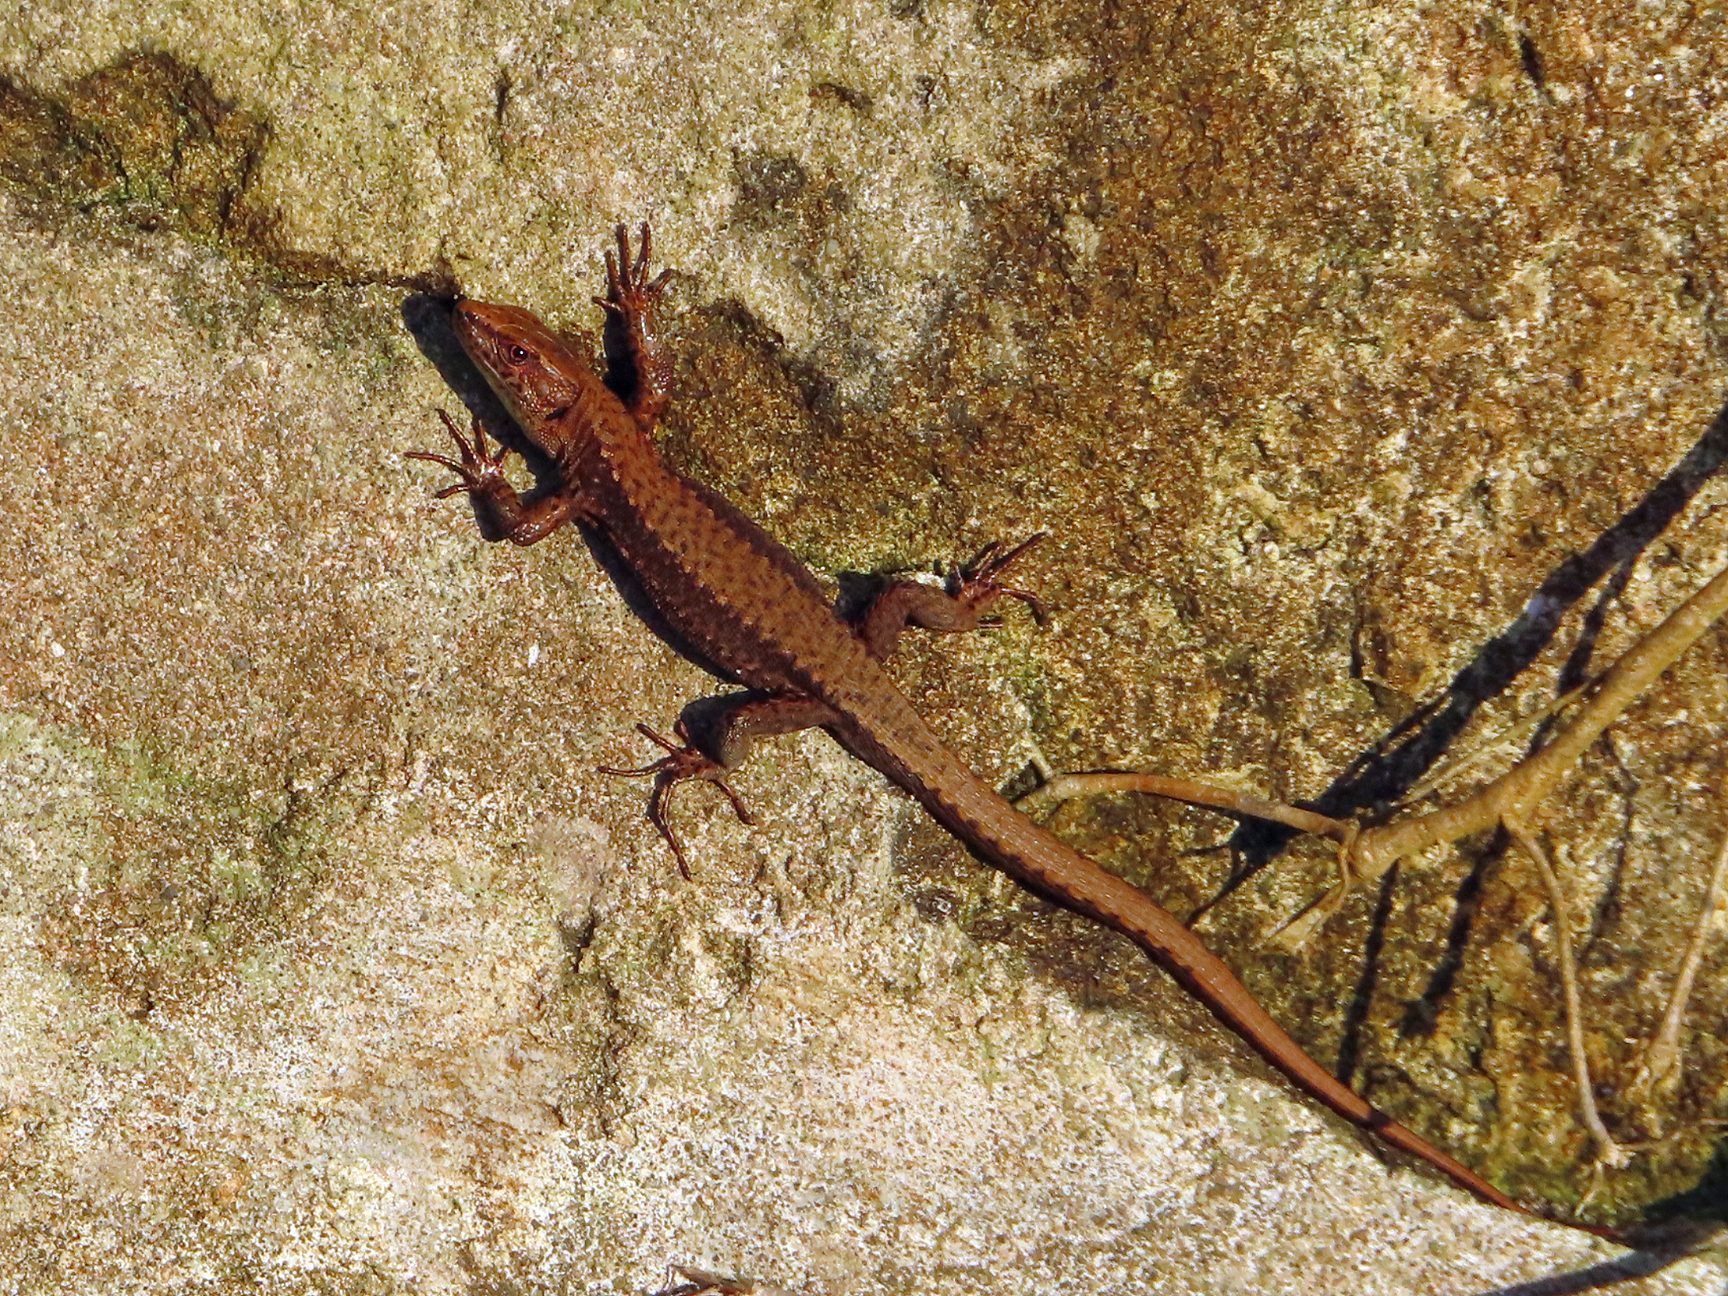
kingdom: Animalia
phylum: Chordata
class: Squamata
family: Lacertidae
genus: Darevskia
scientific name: Darevskia derjugini
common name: Derjugin's lizard
